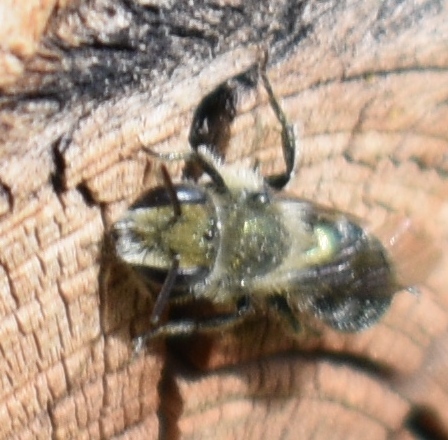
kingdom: Animalia
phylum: Arthropoda
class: Insecta
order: Hymenoptera
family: Megachilidae
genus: Osmia
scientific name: Osmia
